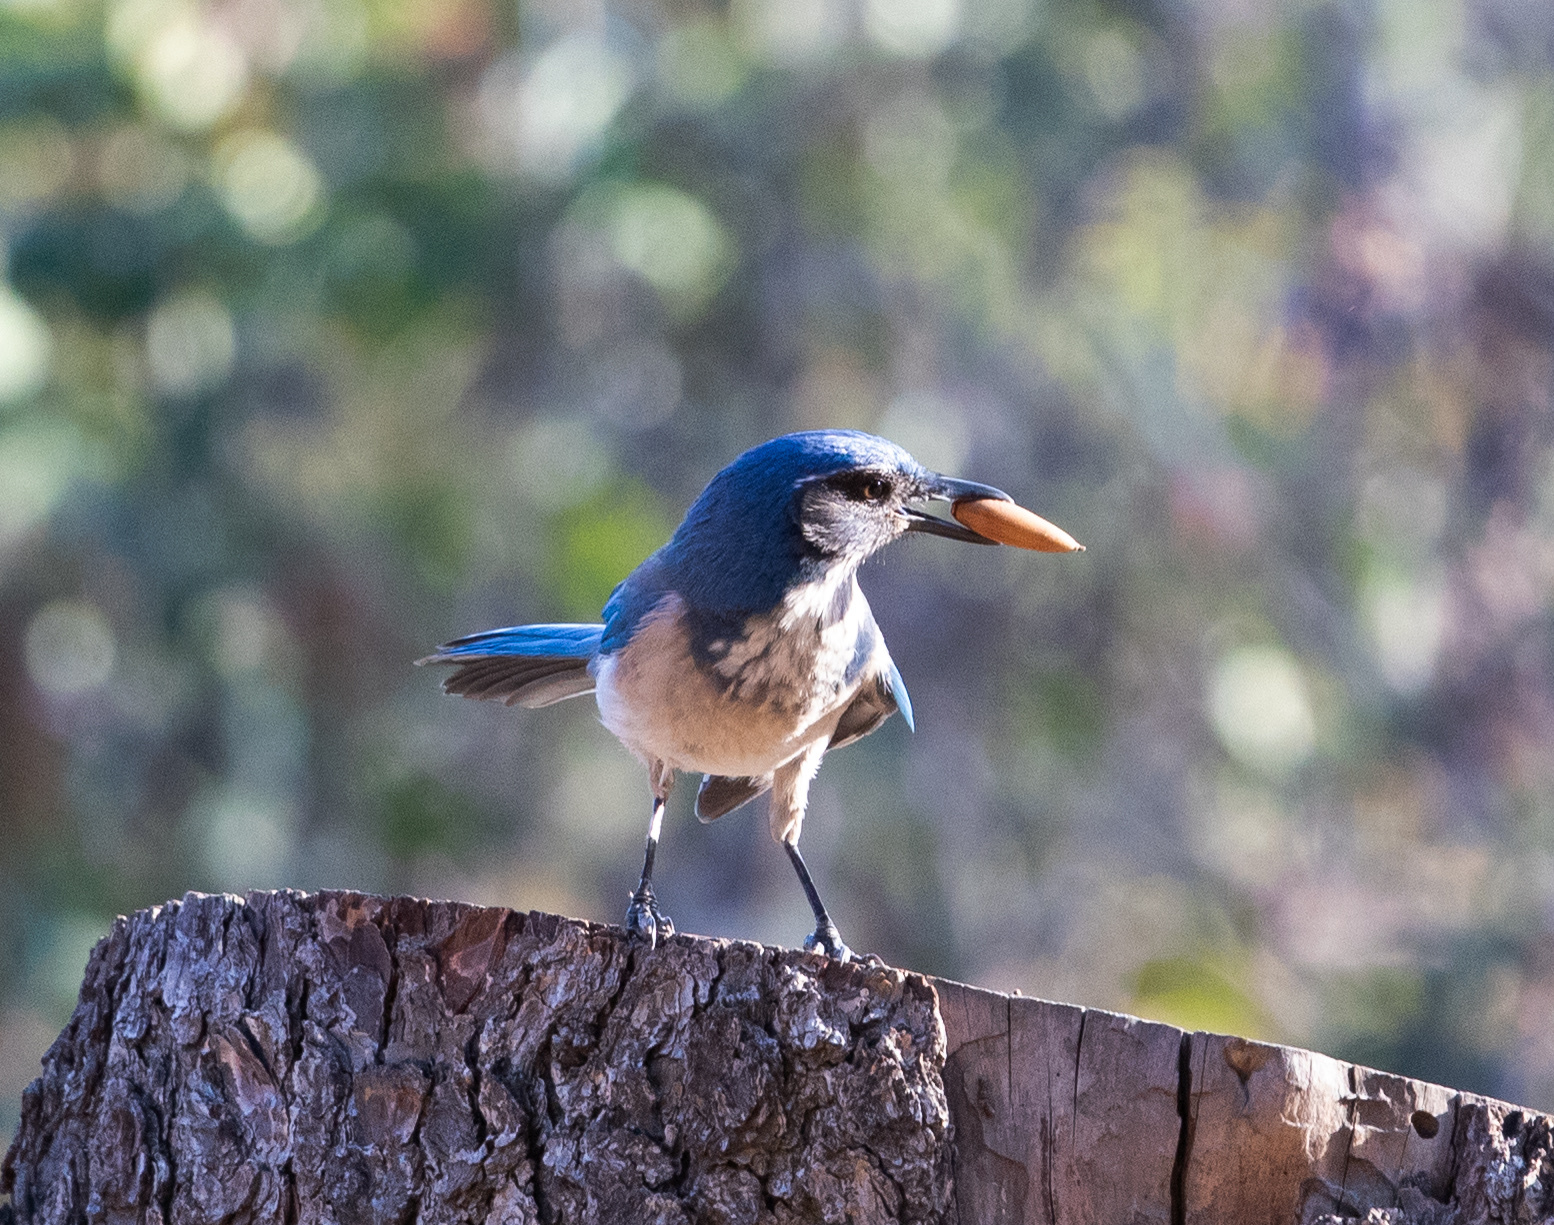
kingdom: Animalia
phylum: Chordata
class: Aves
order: Passeriformes
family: Corvidae
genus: Aphelocoma
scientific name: Aphelocoma californica
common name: California scrub-jay
